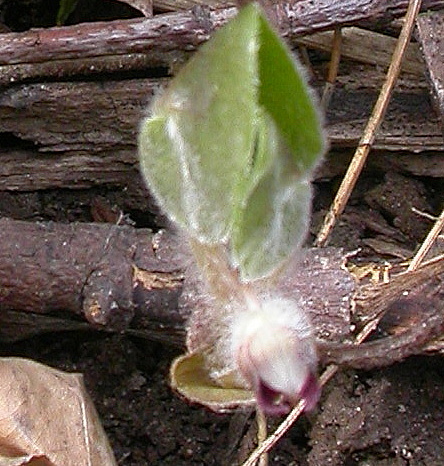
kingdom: Plantae
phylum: Tracheophyta
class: Magnoliopsida
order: Piperales
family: Aristolochiaceae
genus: Asarum
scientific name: Asarum europaeum
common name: Asarabacca
